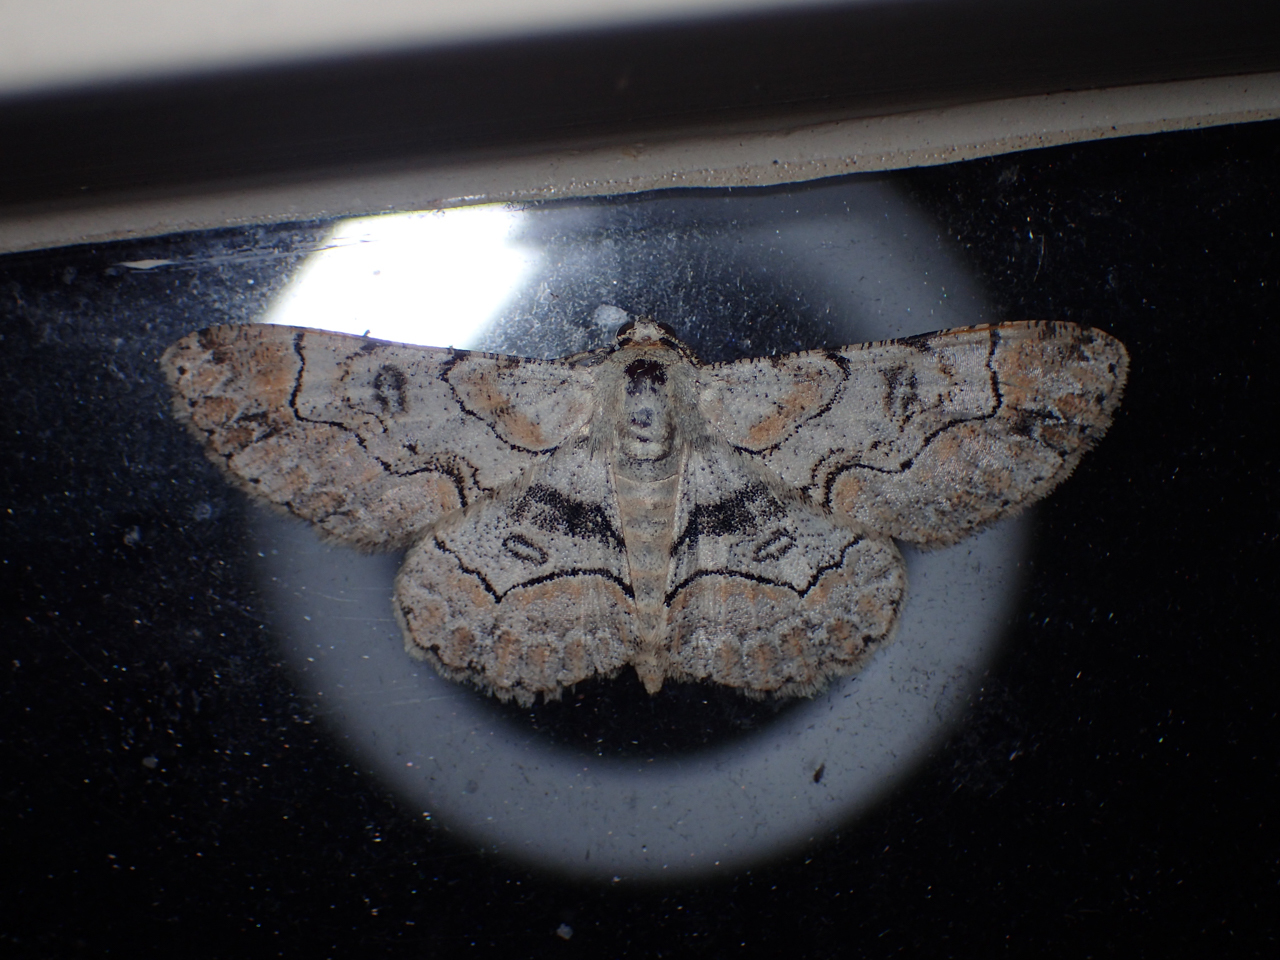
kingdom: Animalia
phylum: Arthropoda
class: Insecta
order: Lepidoptera
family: Geometridae
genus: Iridopsis
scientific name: Iridopsis larvaria
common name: Bent-line gray
